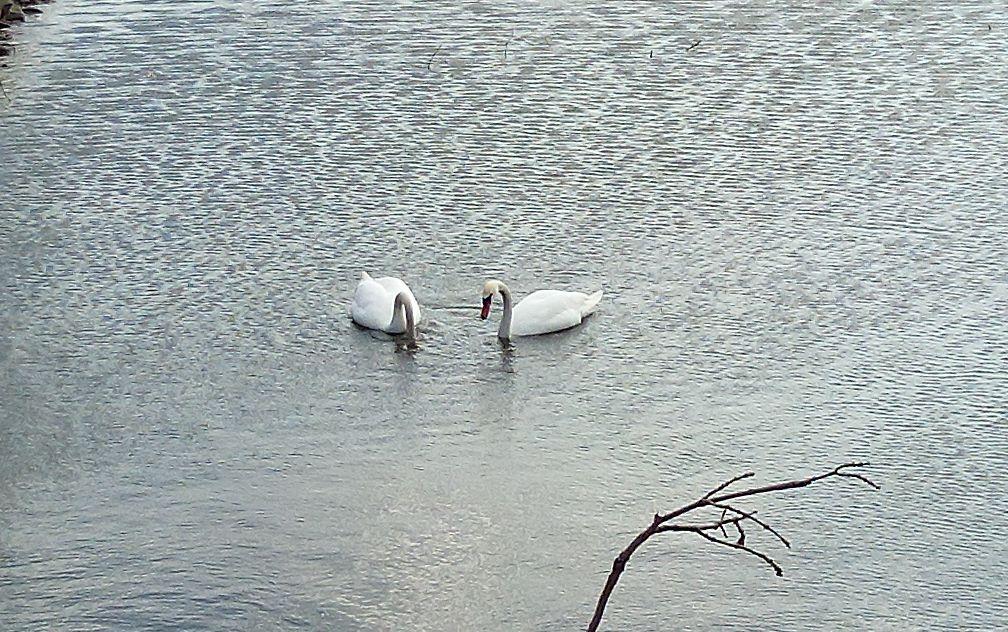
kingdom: Animalia
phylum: Chordata
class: Aves
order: Anseriformes
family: Anatidae
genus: Cygnus
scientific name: Cygnus olor
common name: Mute swan
